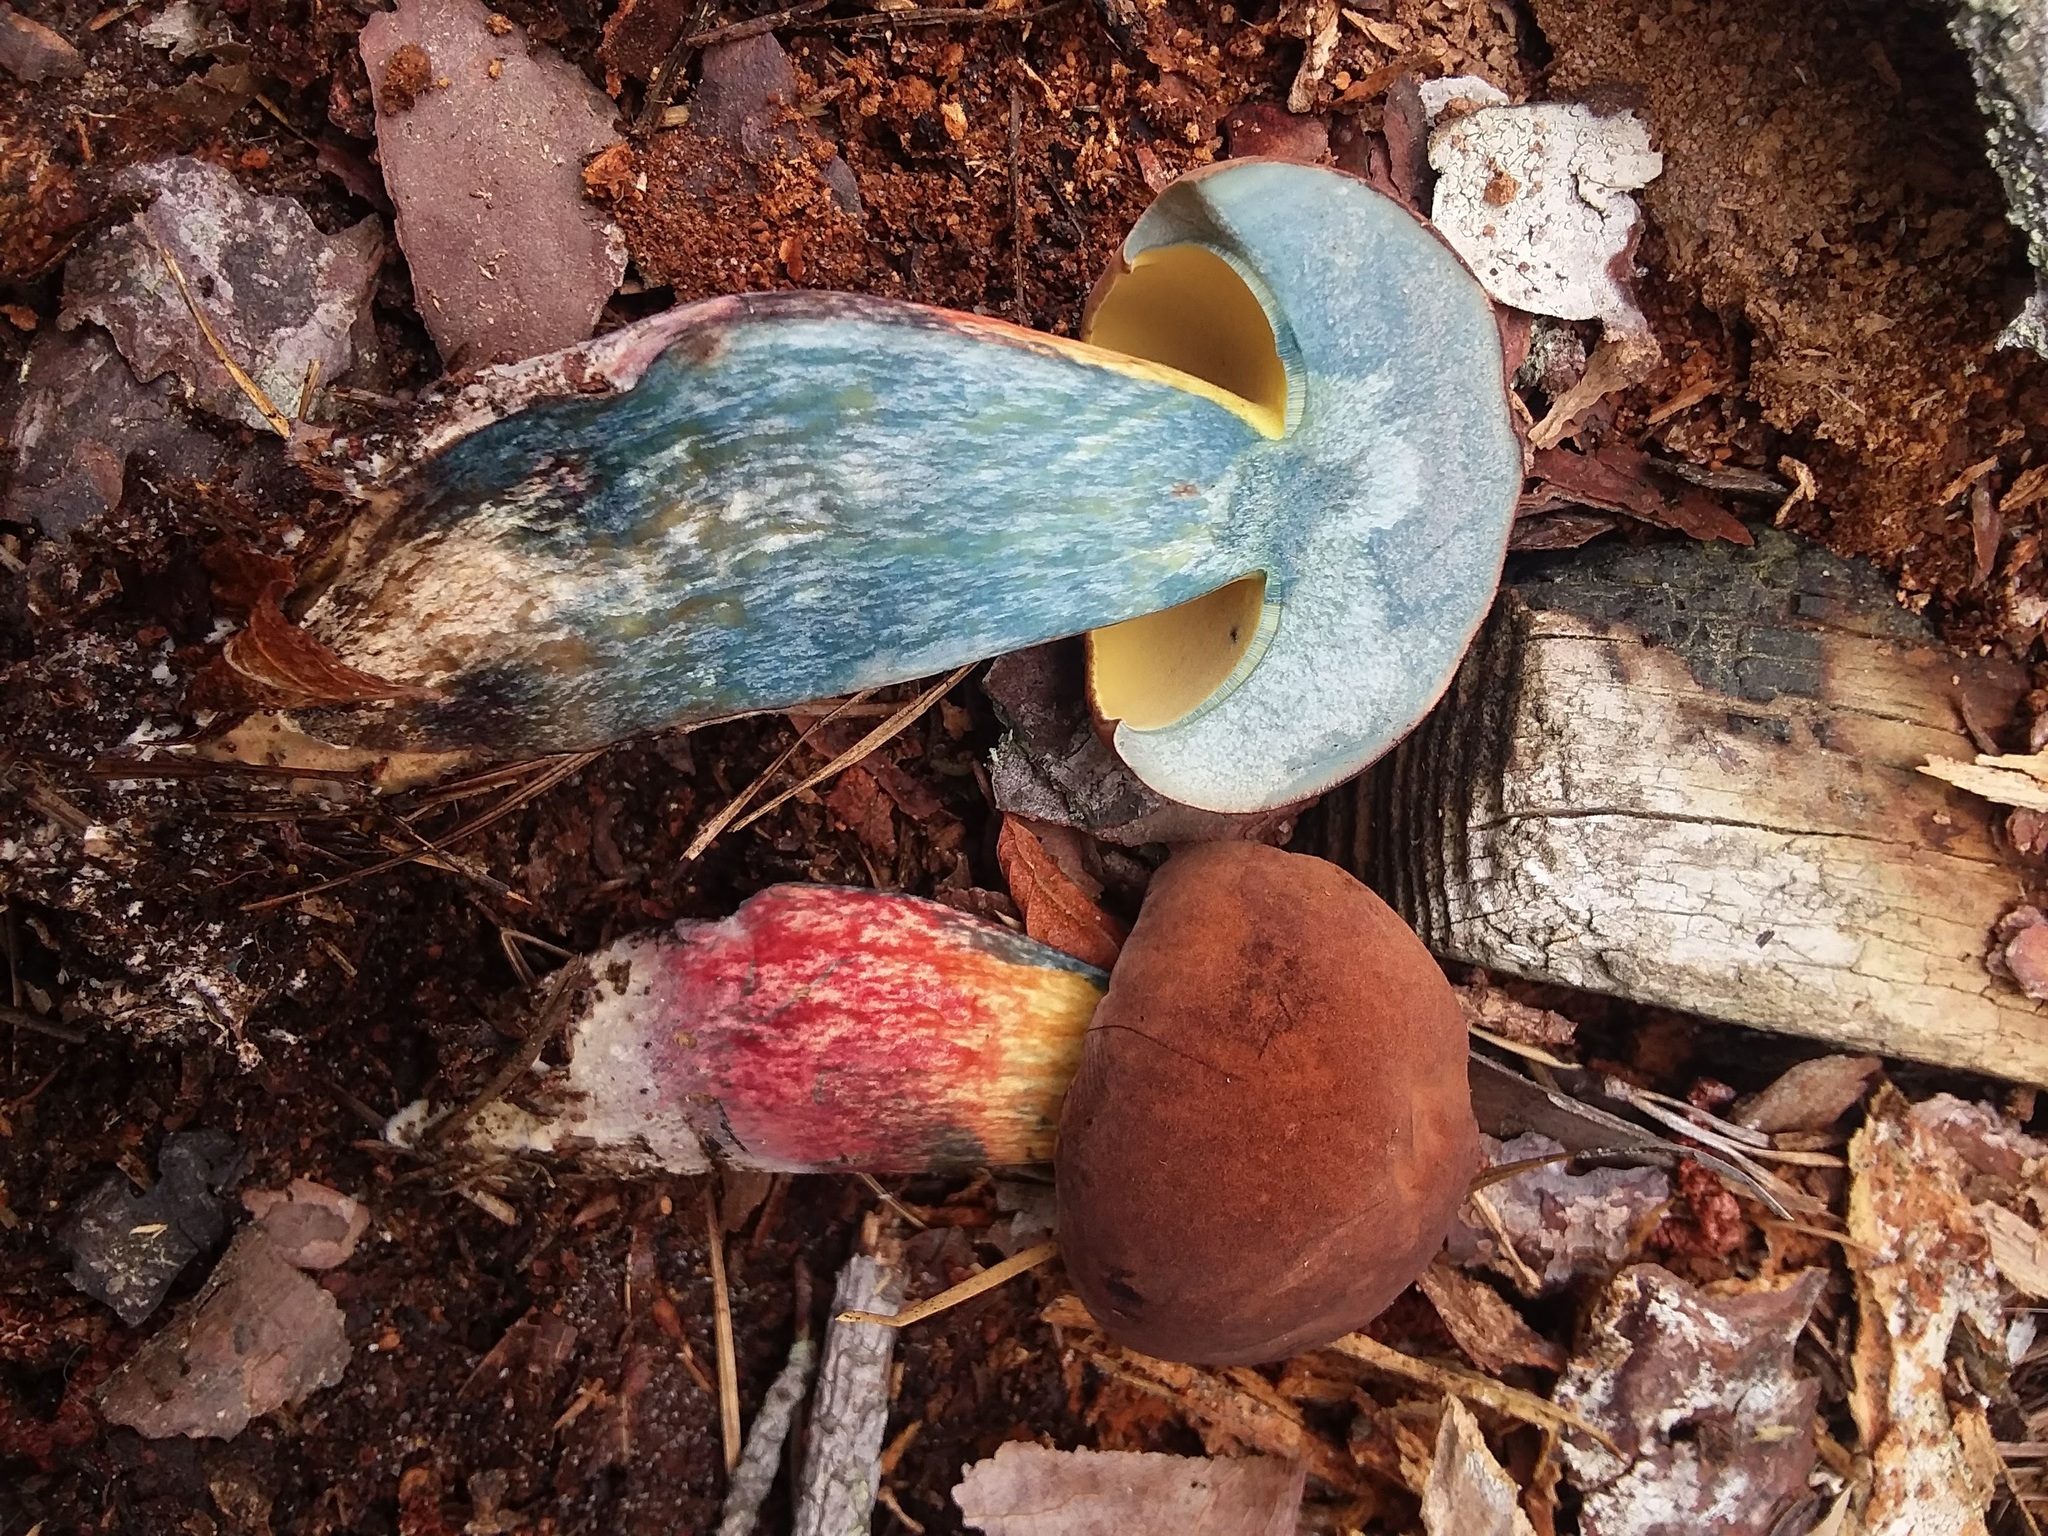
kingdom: Fungi
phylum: Basidiomycota
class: Agaricomycetes
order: Boletales
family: Boletaceae
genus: Boletus
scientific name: Boletus
